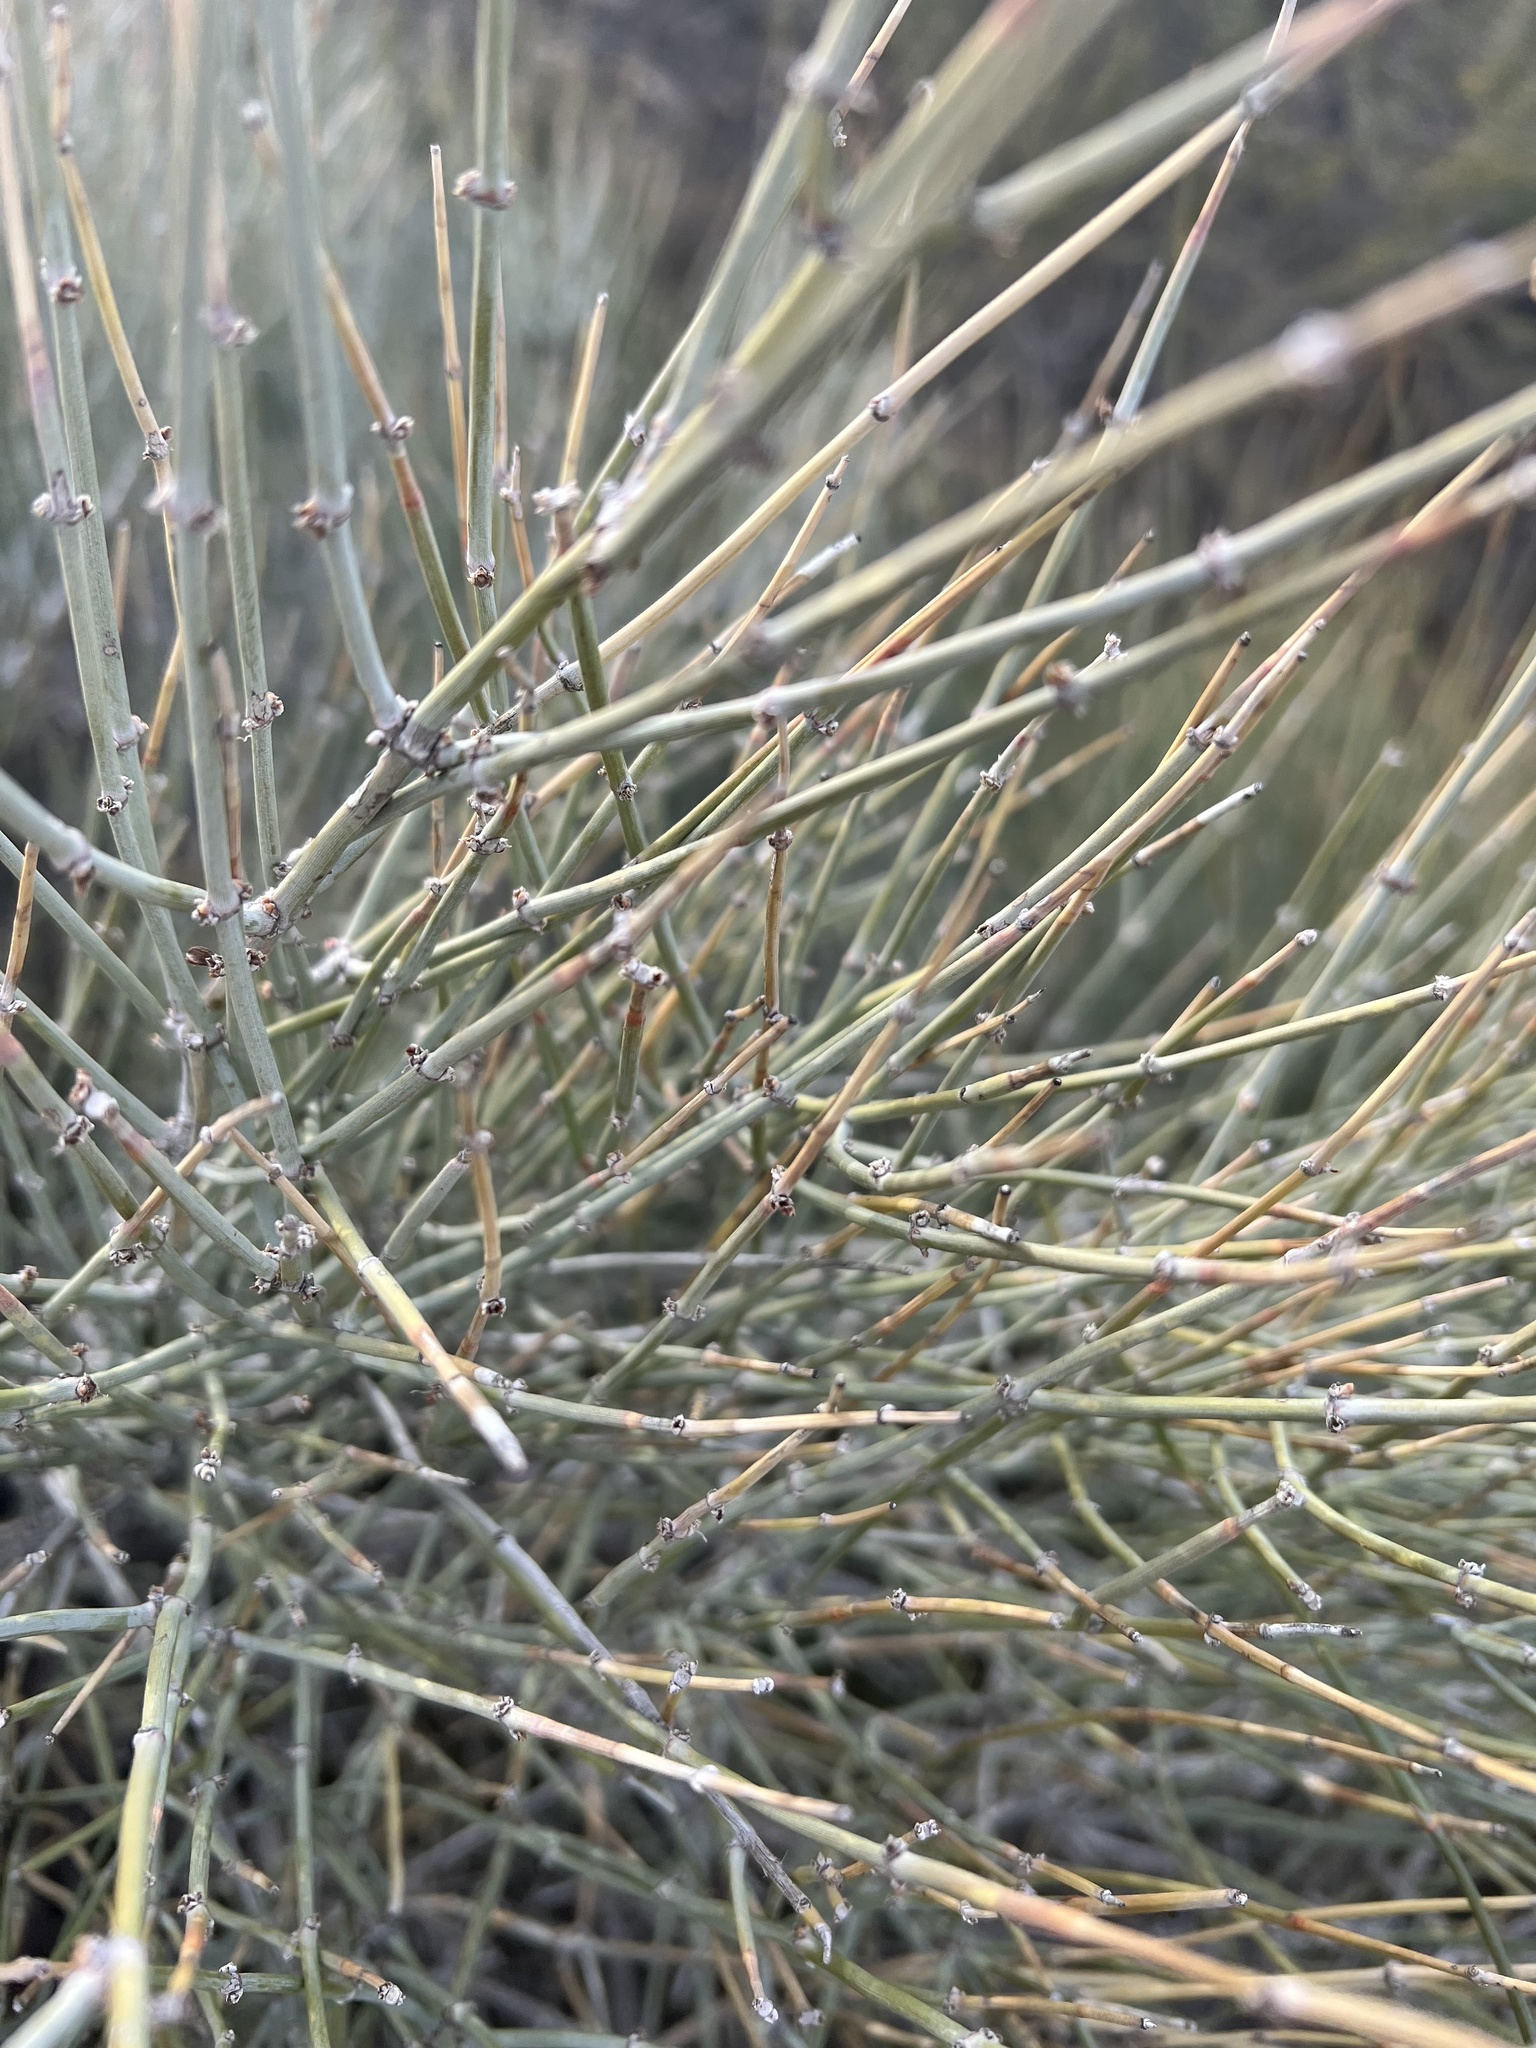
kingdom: Plantae
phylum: Tracheophyta
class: Gnetopsida
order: Ephedrales
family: Ephedraceae
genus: Ephedra
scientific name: Ephedra aspera
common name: Boundary ephedra
